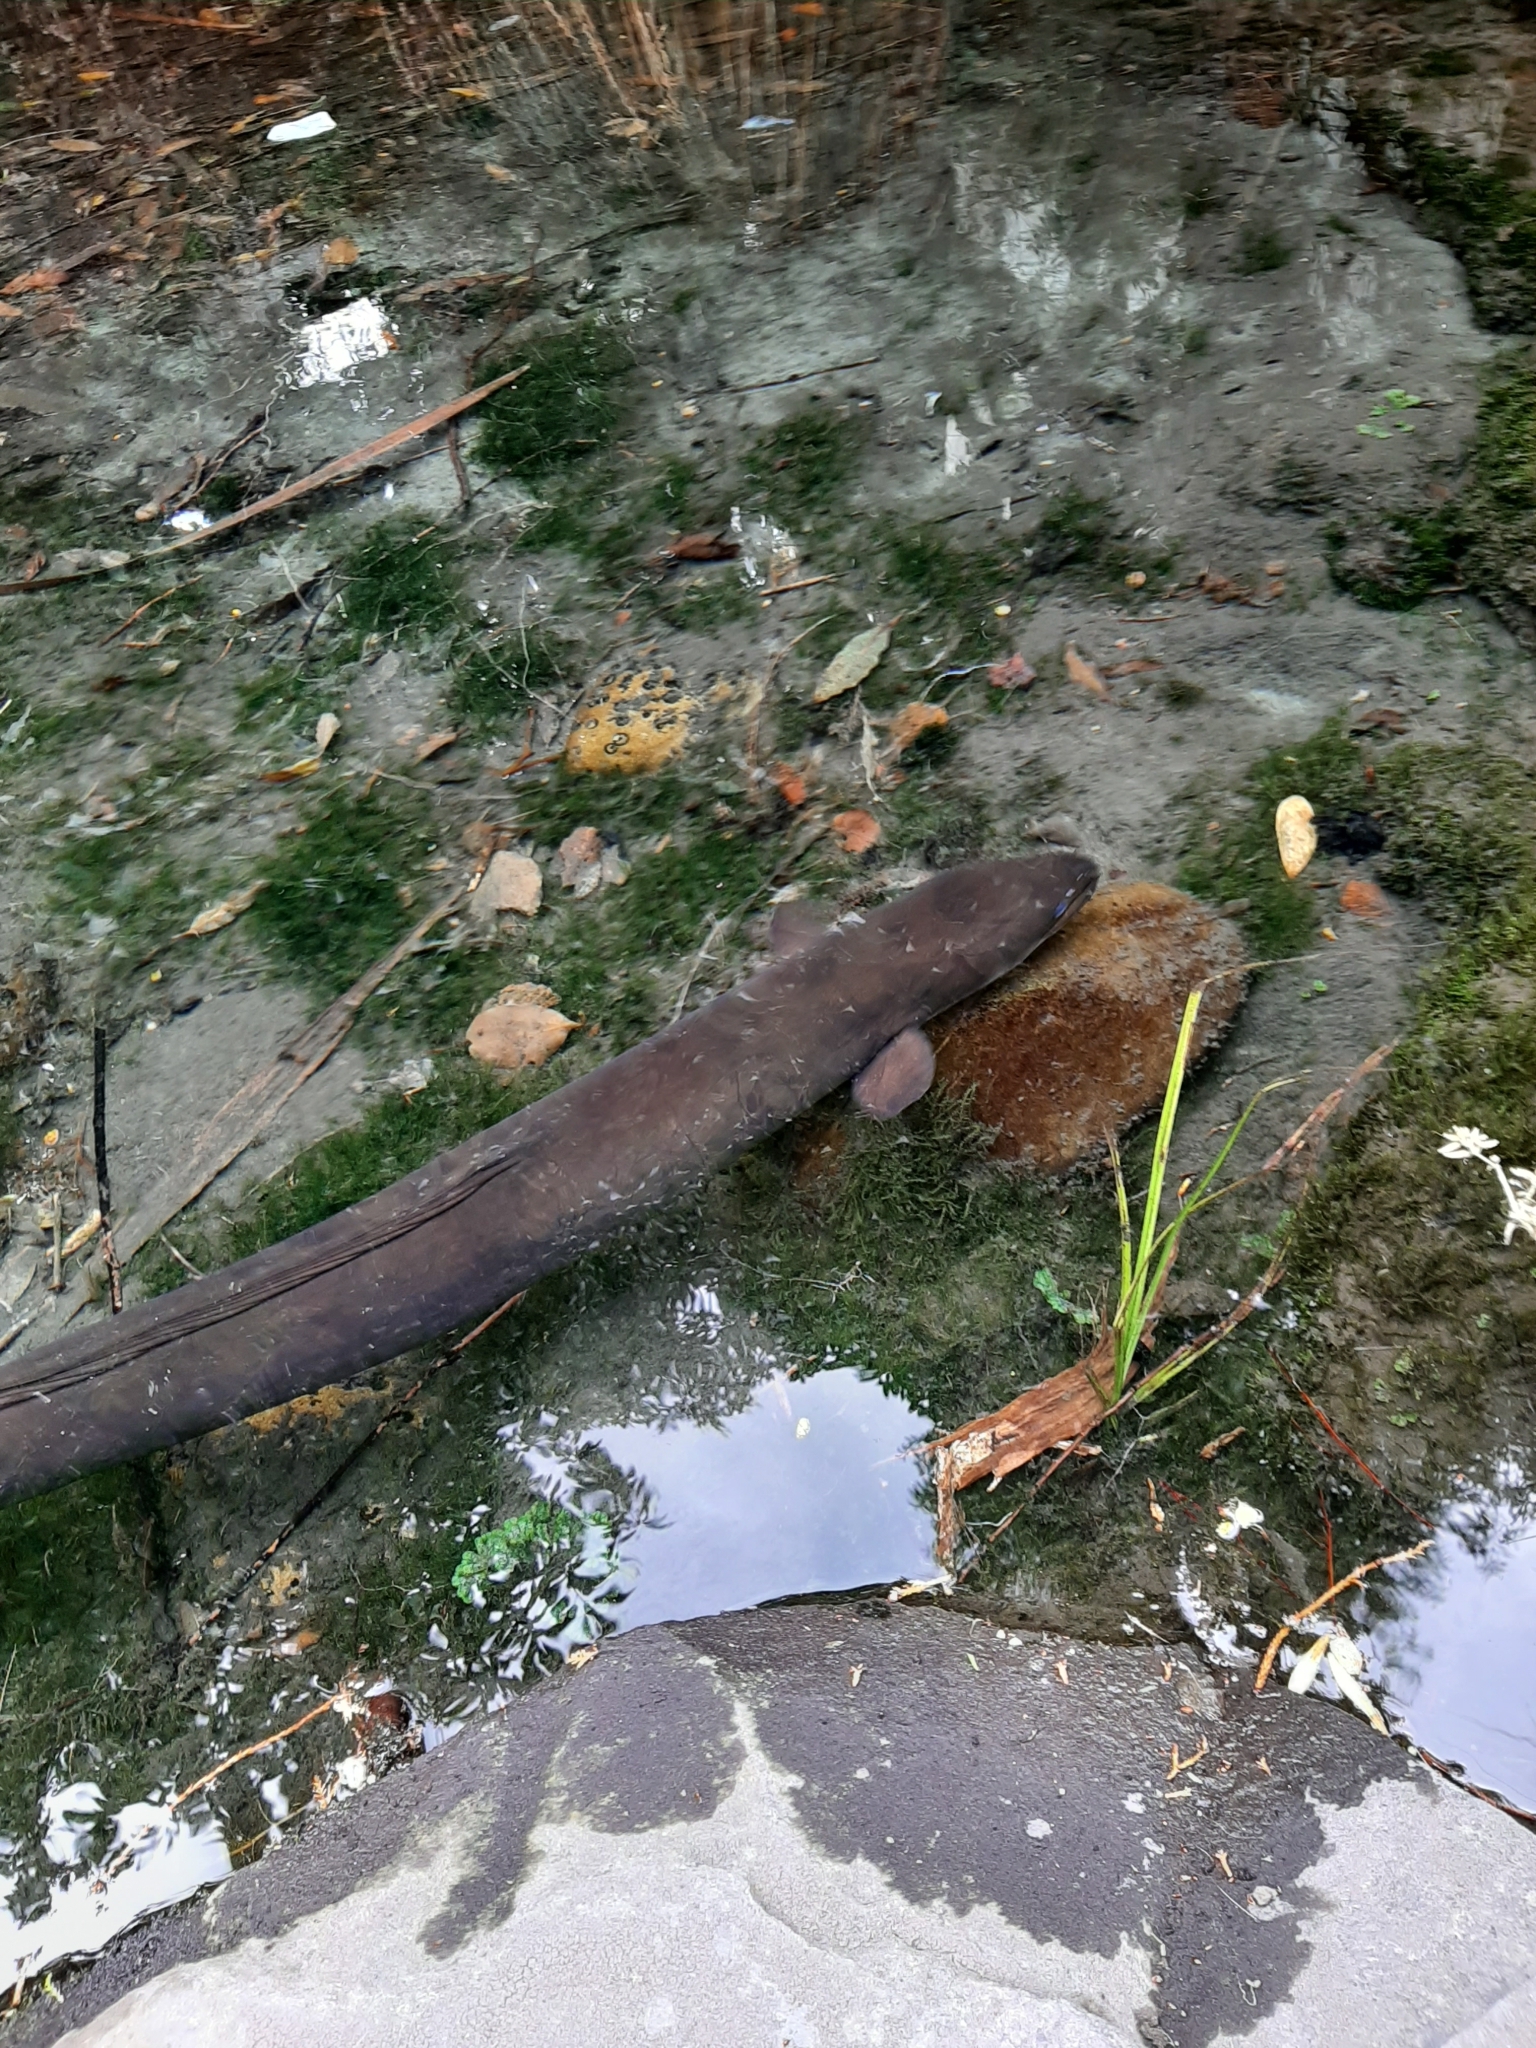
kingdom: Animalia
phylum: Chordata
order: Anguilliformes
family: Anguillidae
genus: Anguilla
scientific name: Anguilla dieffenbachii
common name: New zealand longfin eel
